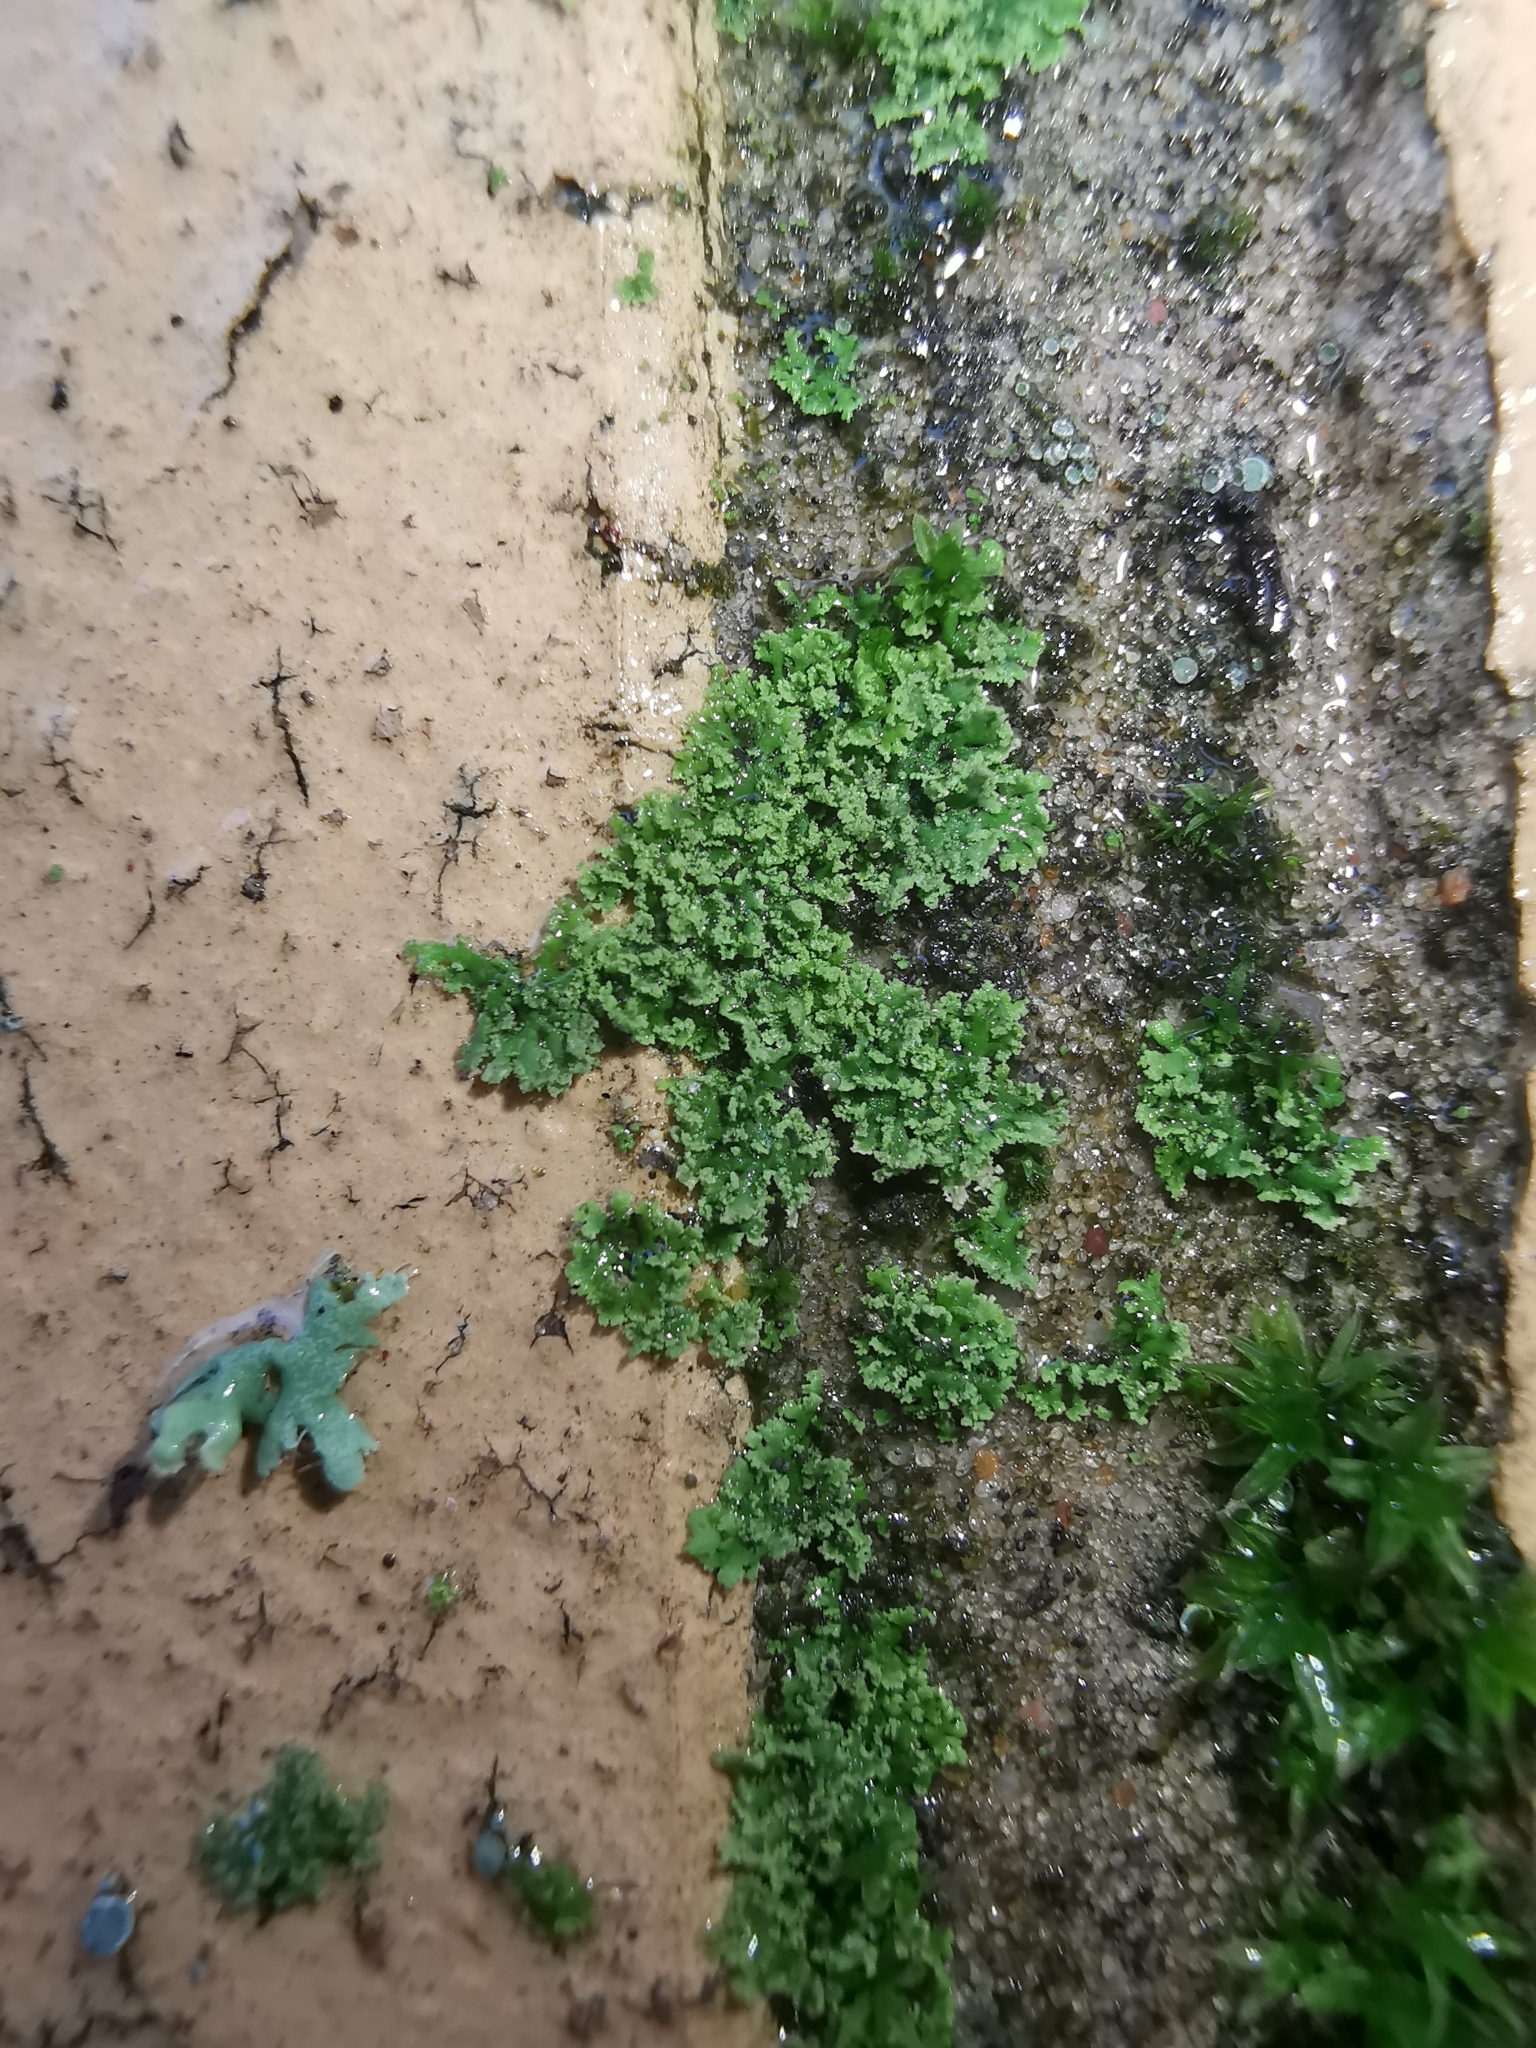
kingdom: Fungi
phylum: Ascomycota
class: Lecanoromycetes
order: Caliciales
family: Physciaceae
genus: Physciella
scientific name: Physciella nigricans
